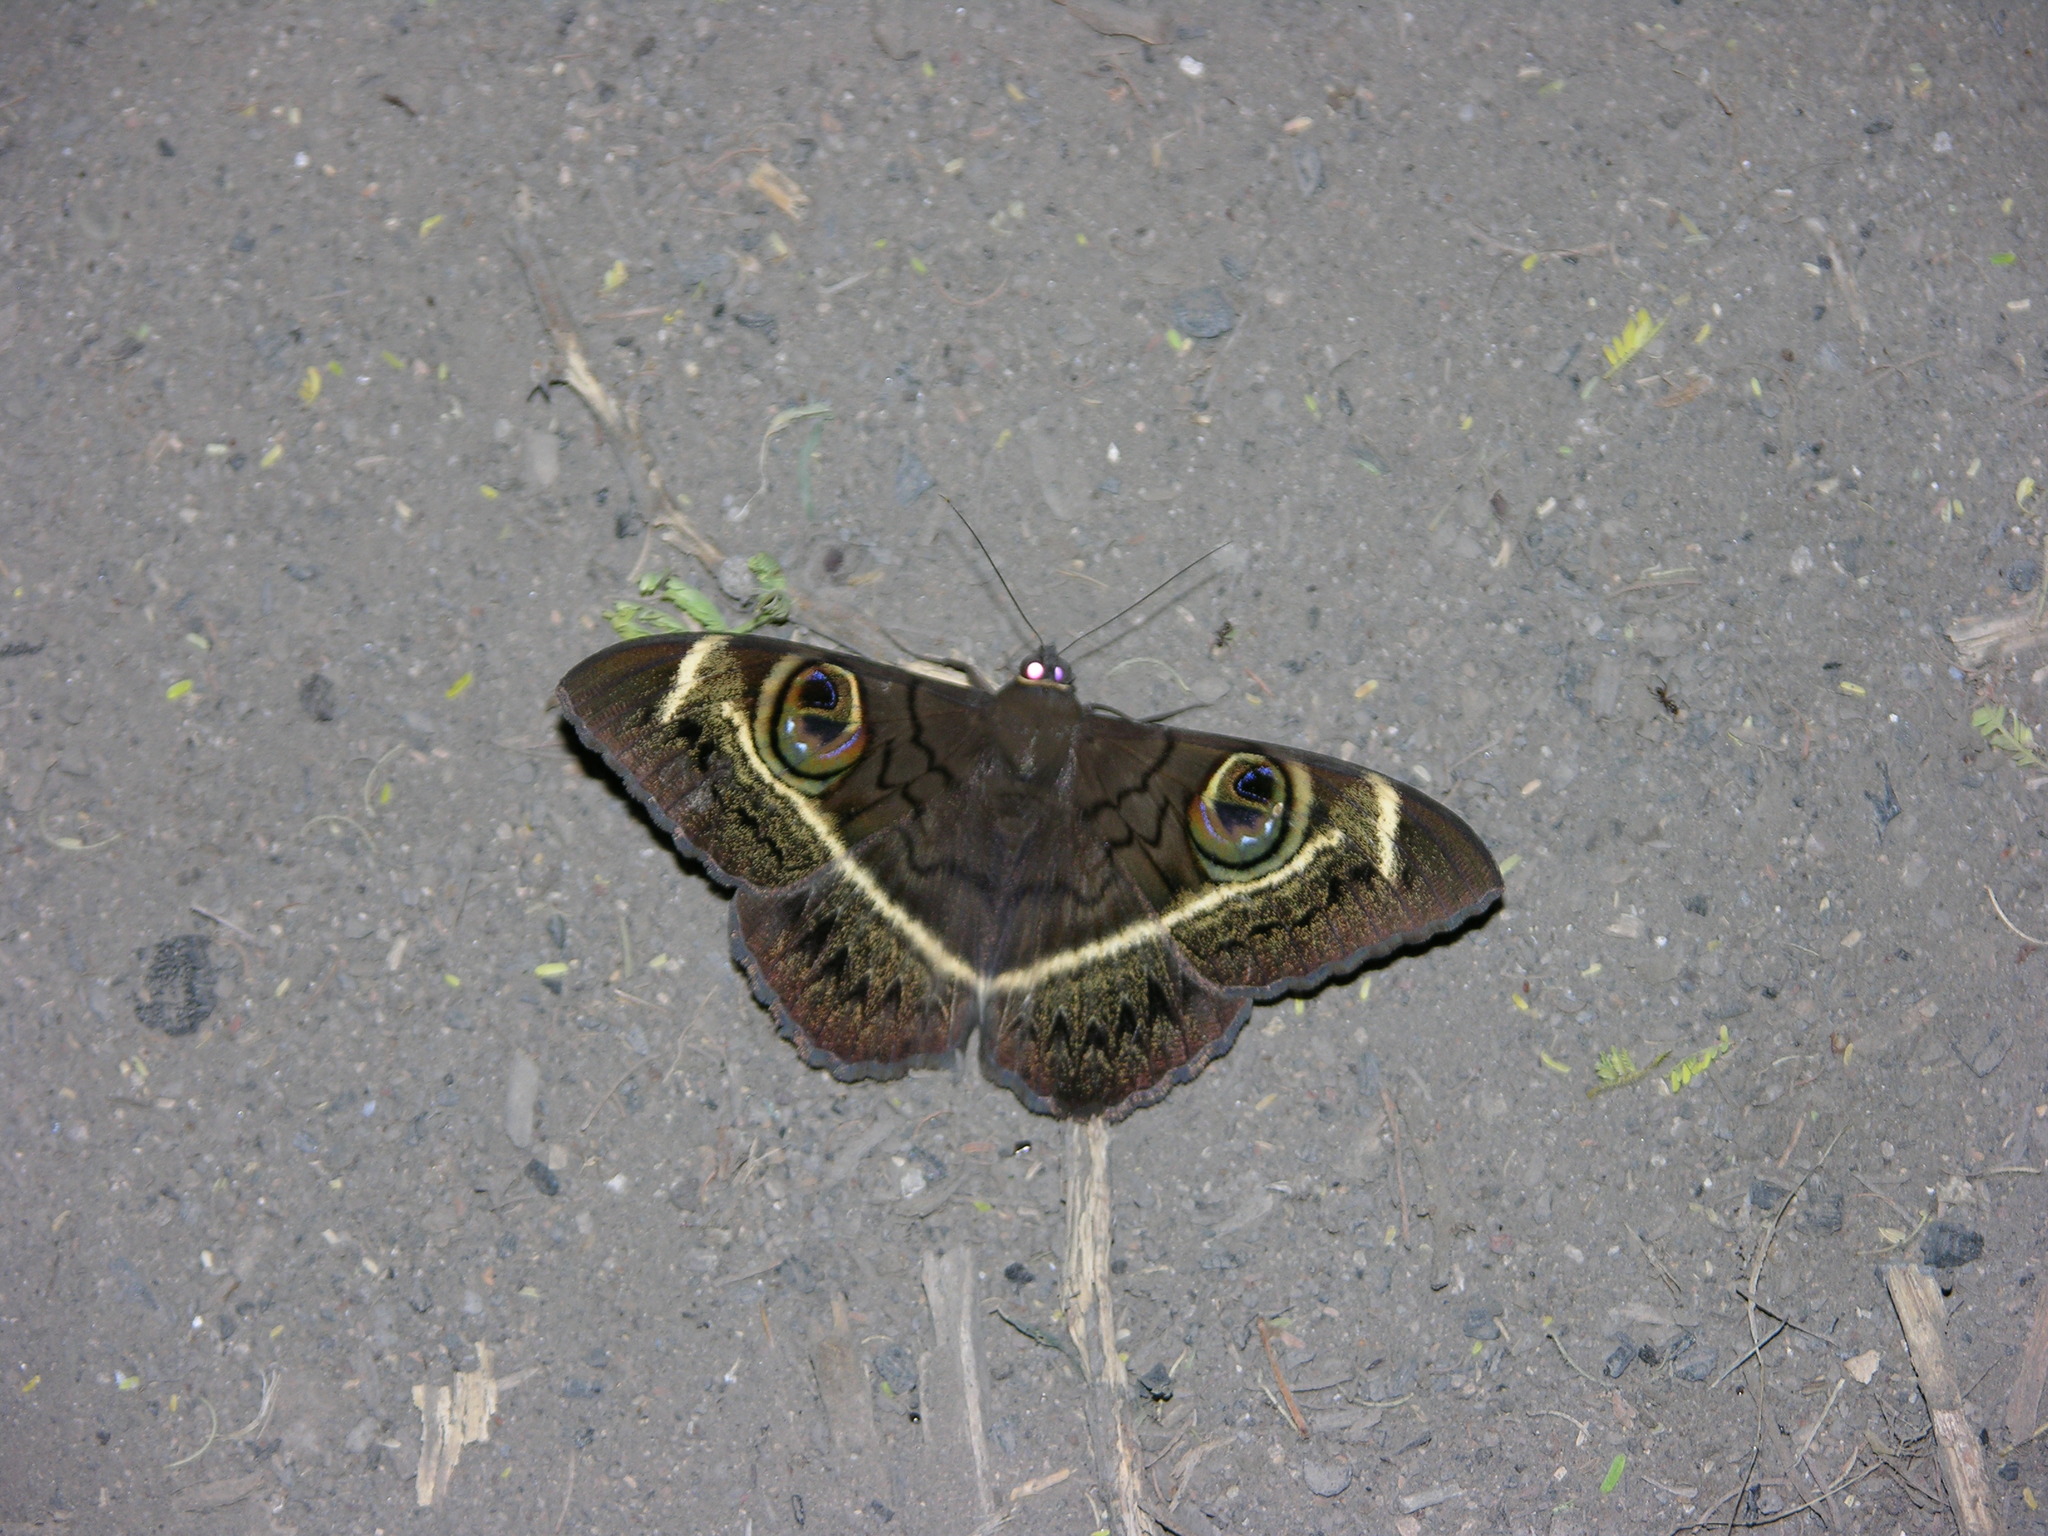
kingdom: Animalia
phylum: Arthropoda
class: Insecta
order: Lepidoptera
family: Erebidae
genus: Cyligramma
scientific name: Cyligramma latona
